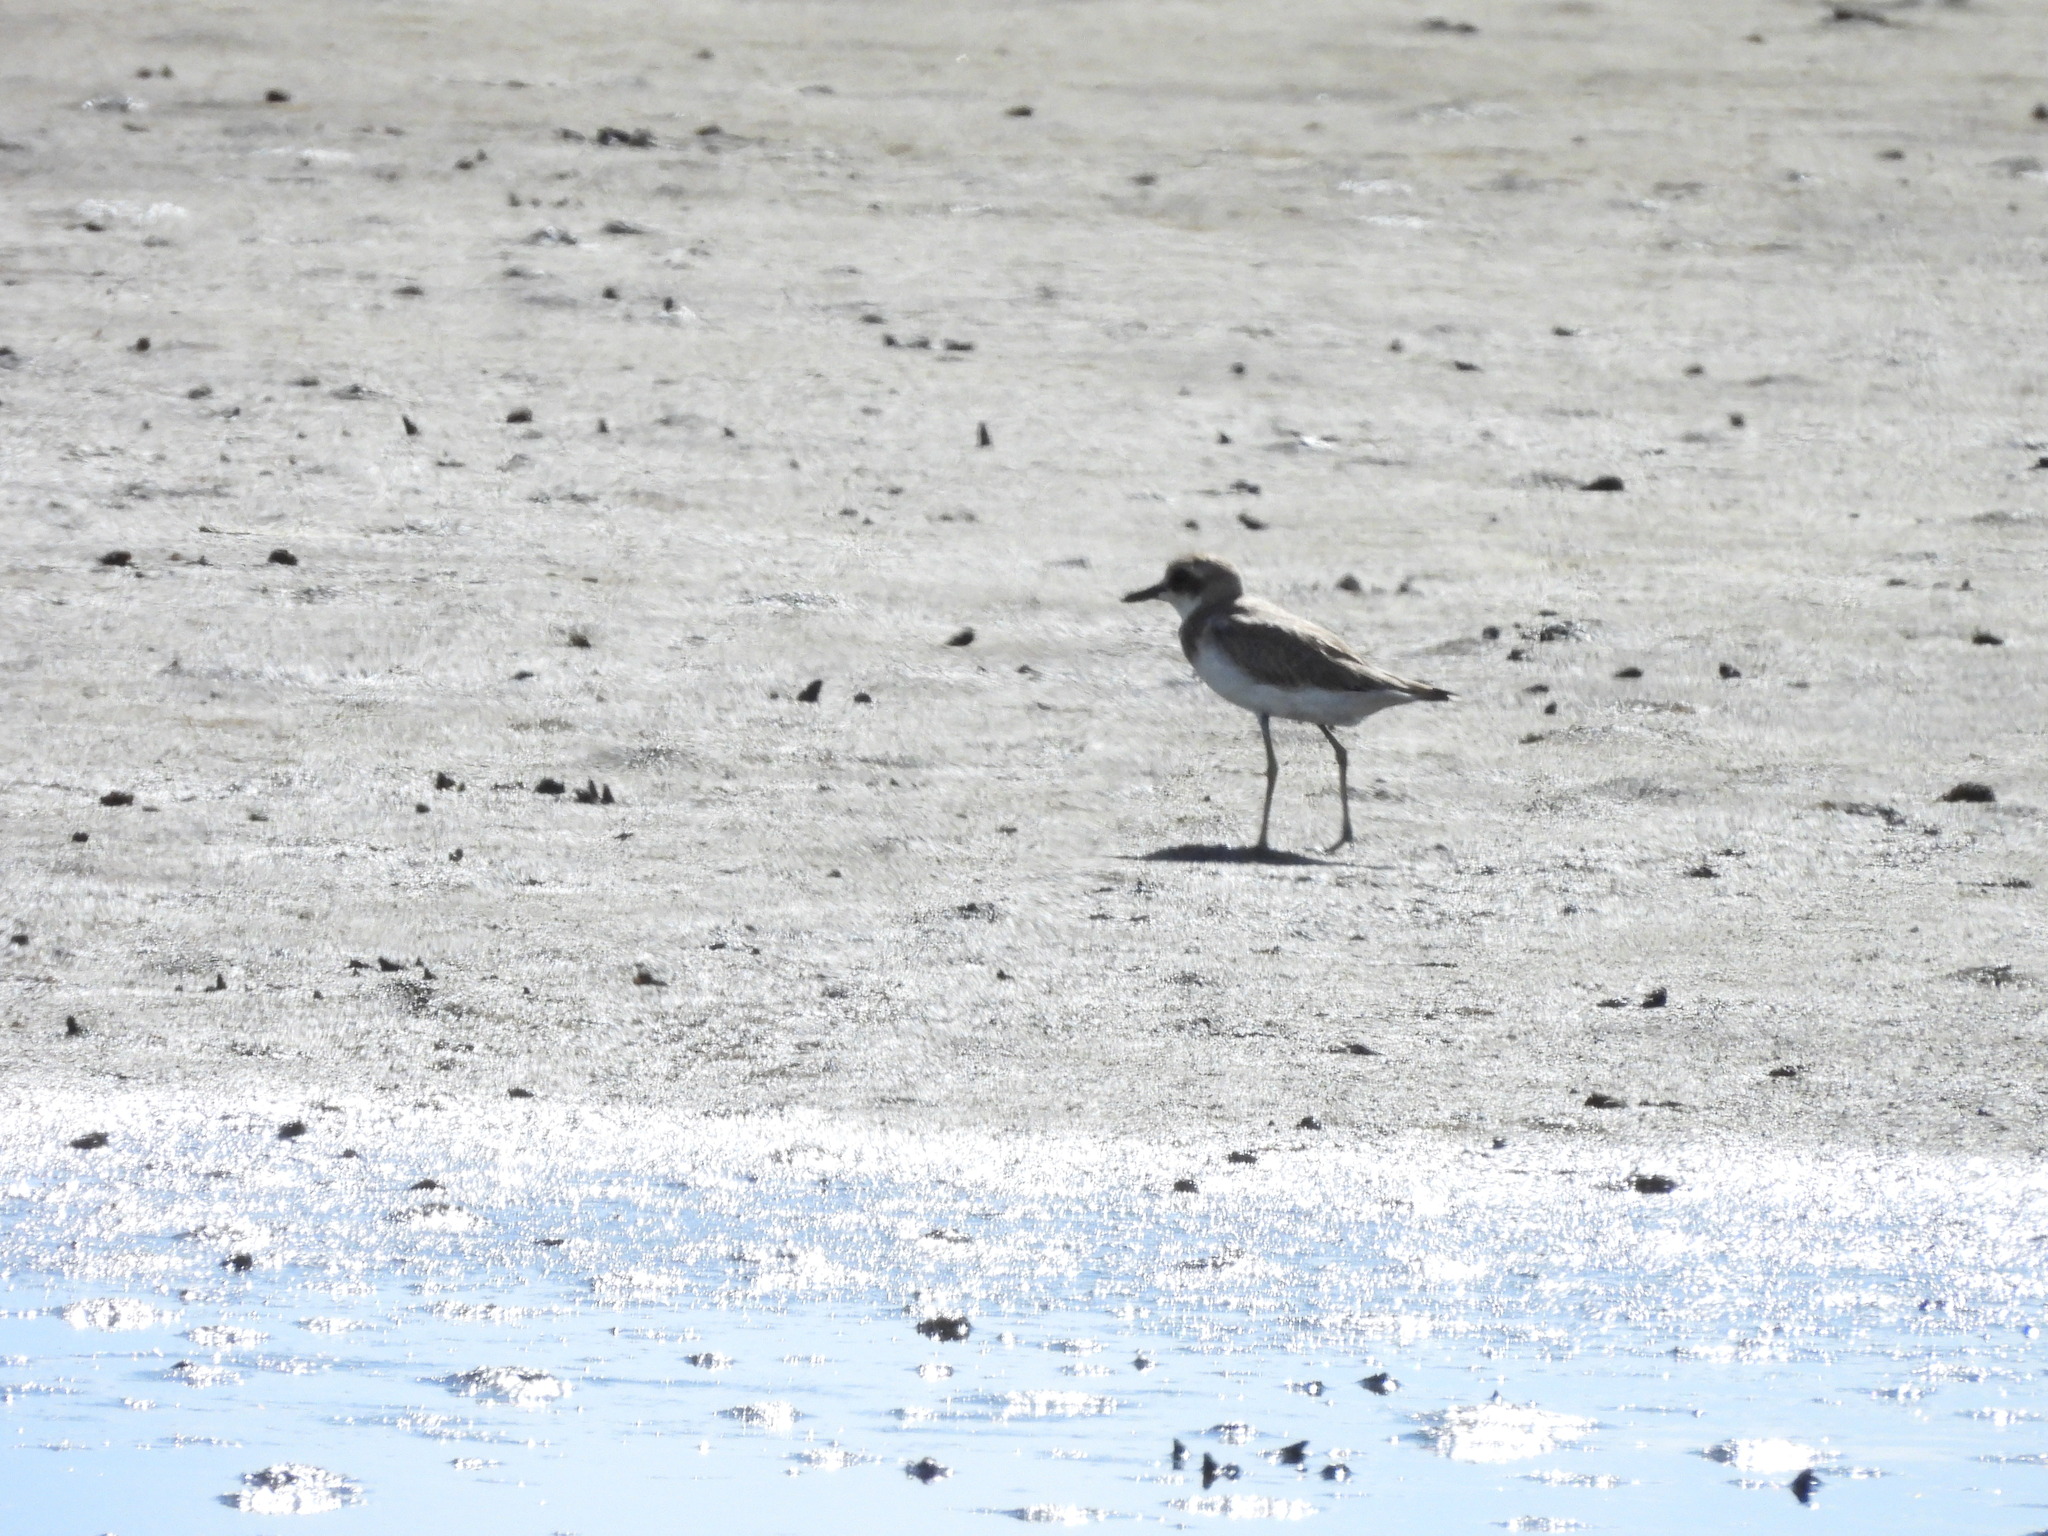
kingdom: Animalia
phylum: Chordata
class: Aves
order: Charadriiformes
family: Charadriidae
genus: Charadrius
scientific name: Charadrius leschenaultii
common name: Greater sand plover
